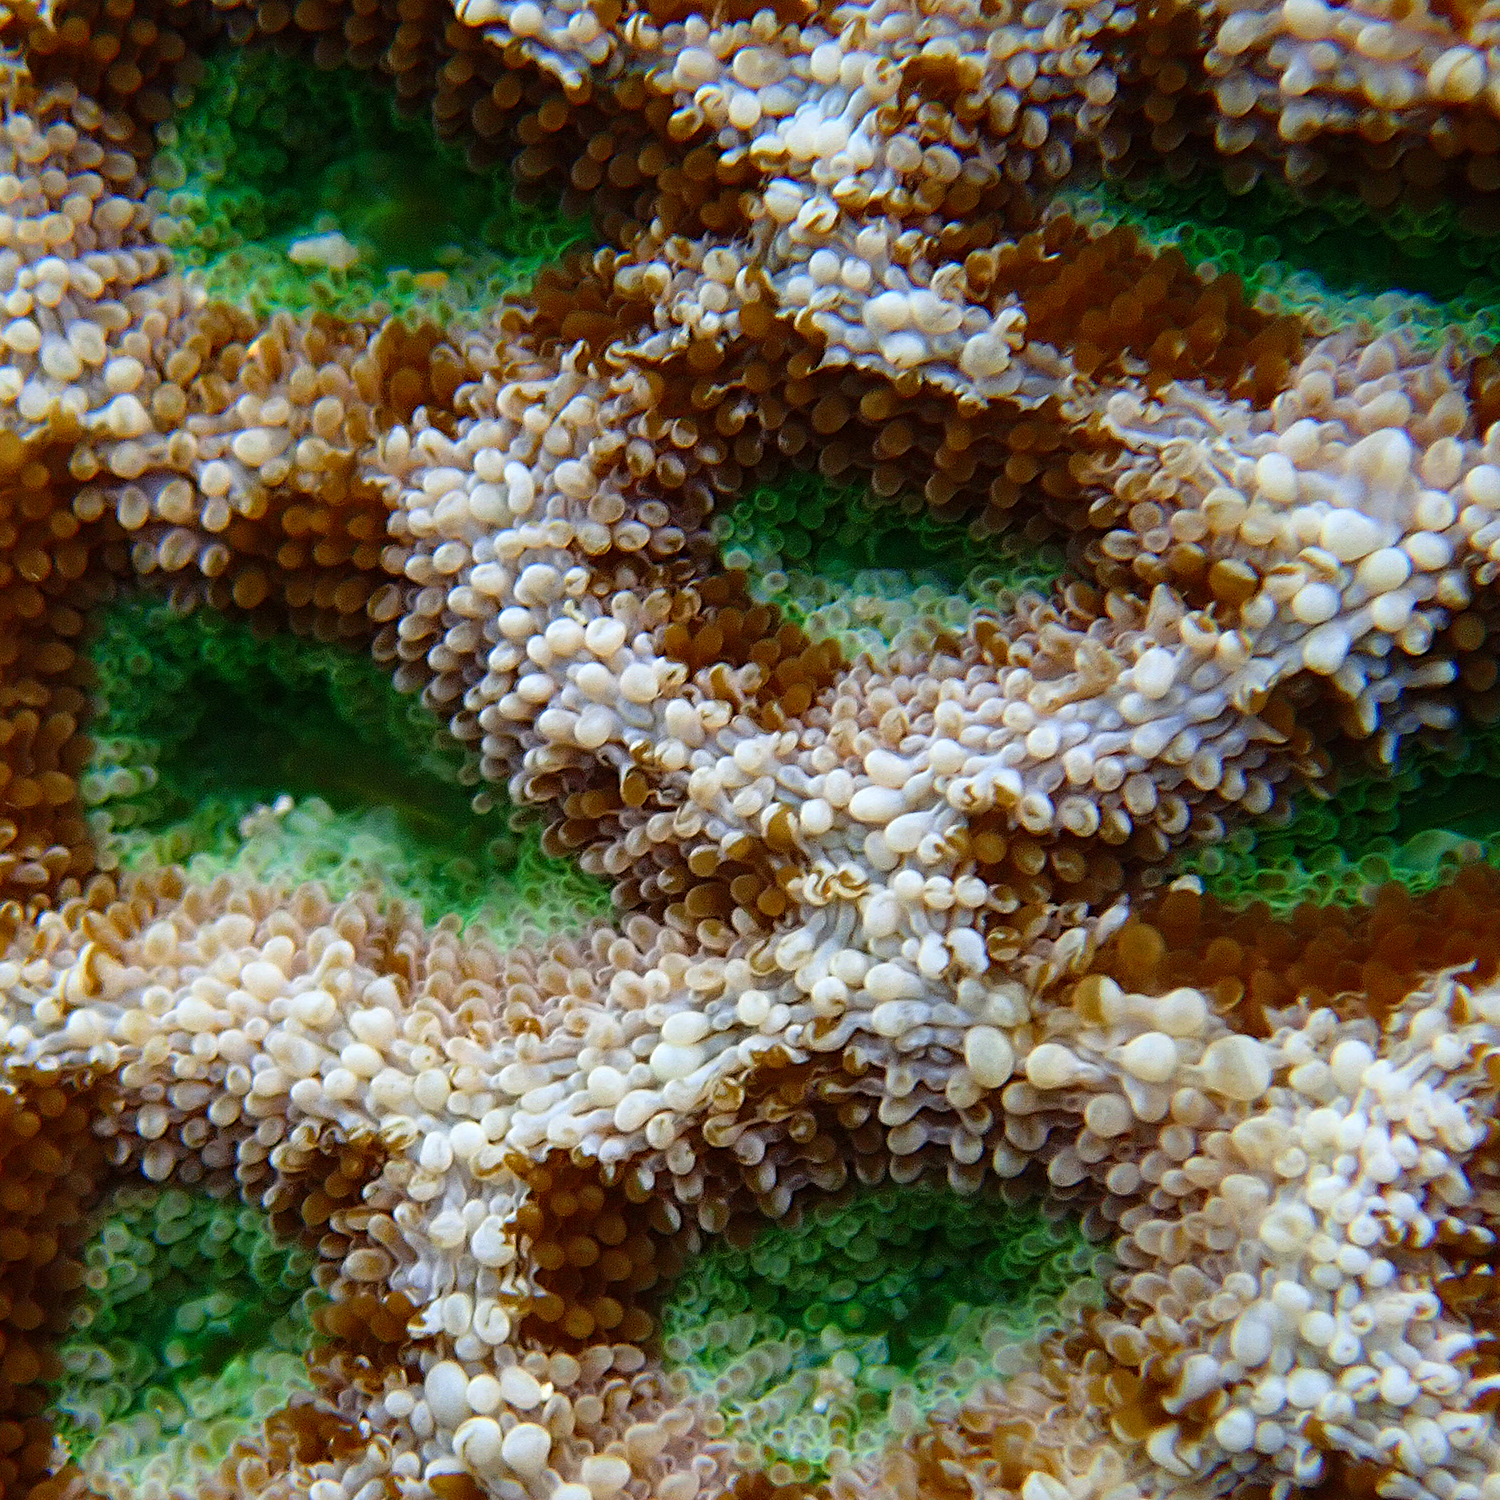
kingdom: Animalia
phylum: Cnidaria
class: Anthozoa
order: Scleractinia
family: Lobophylliidae
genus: Homophyllia
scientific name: Homophyllia bowerbanki
